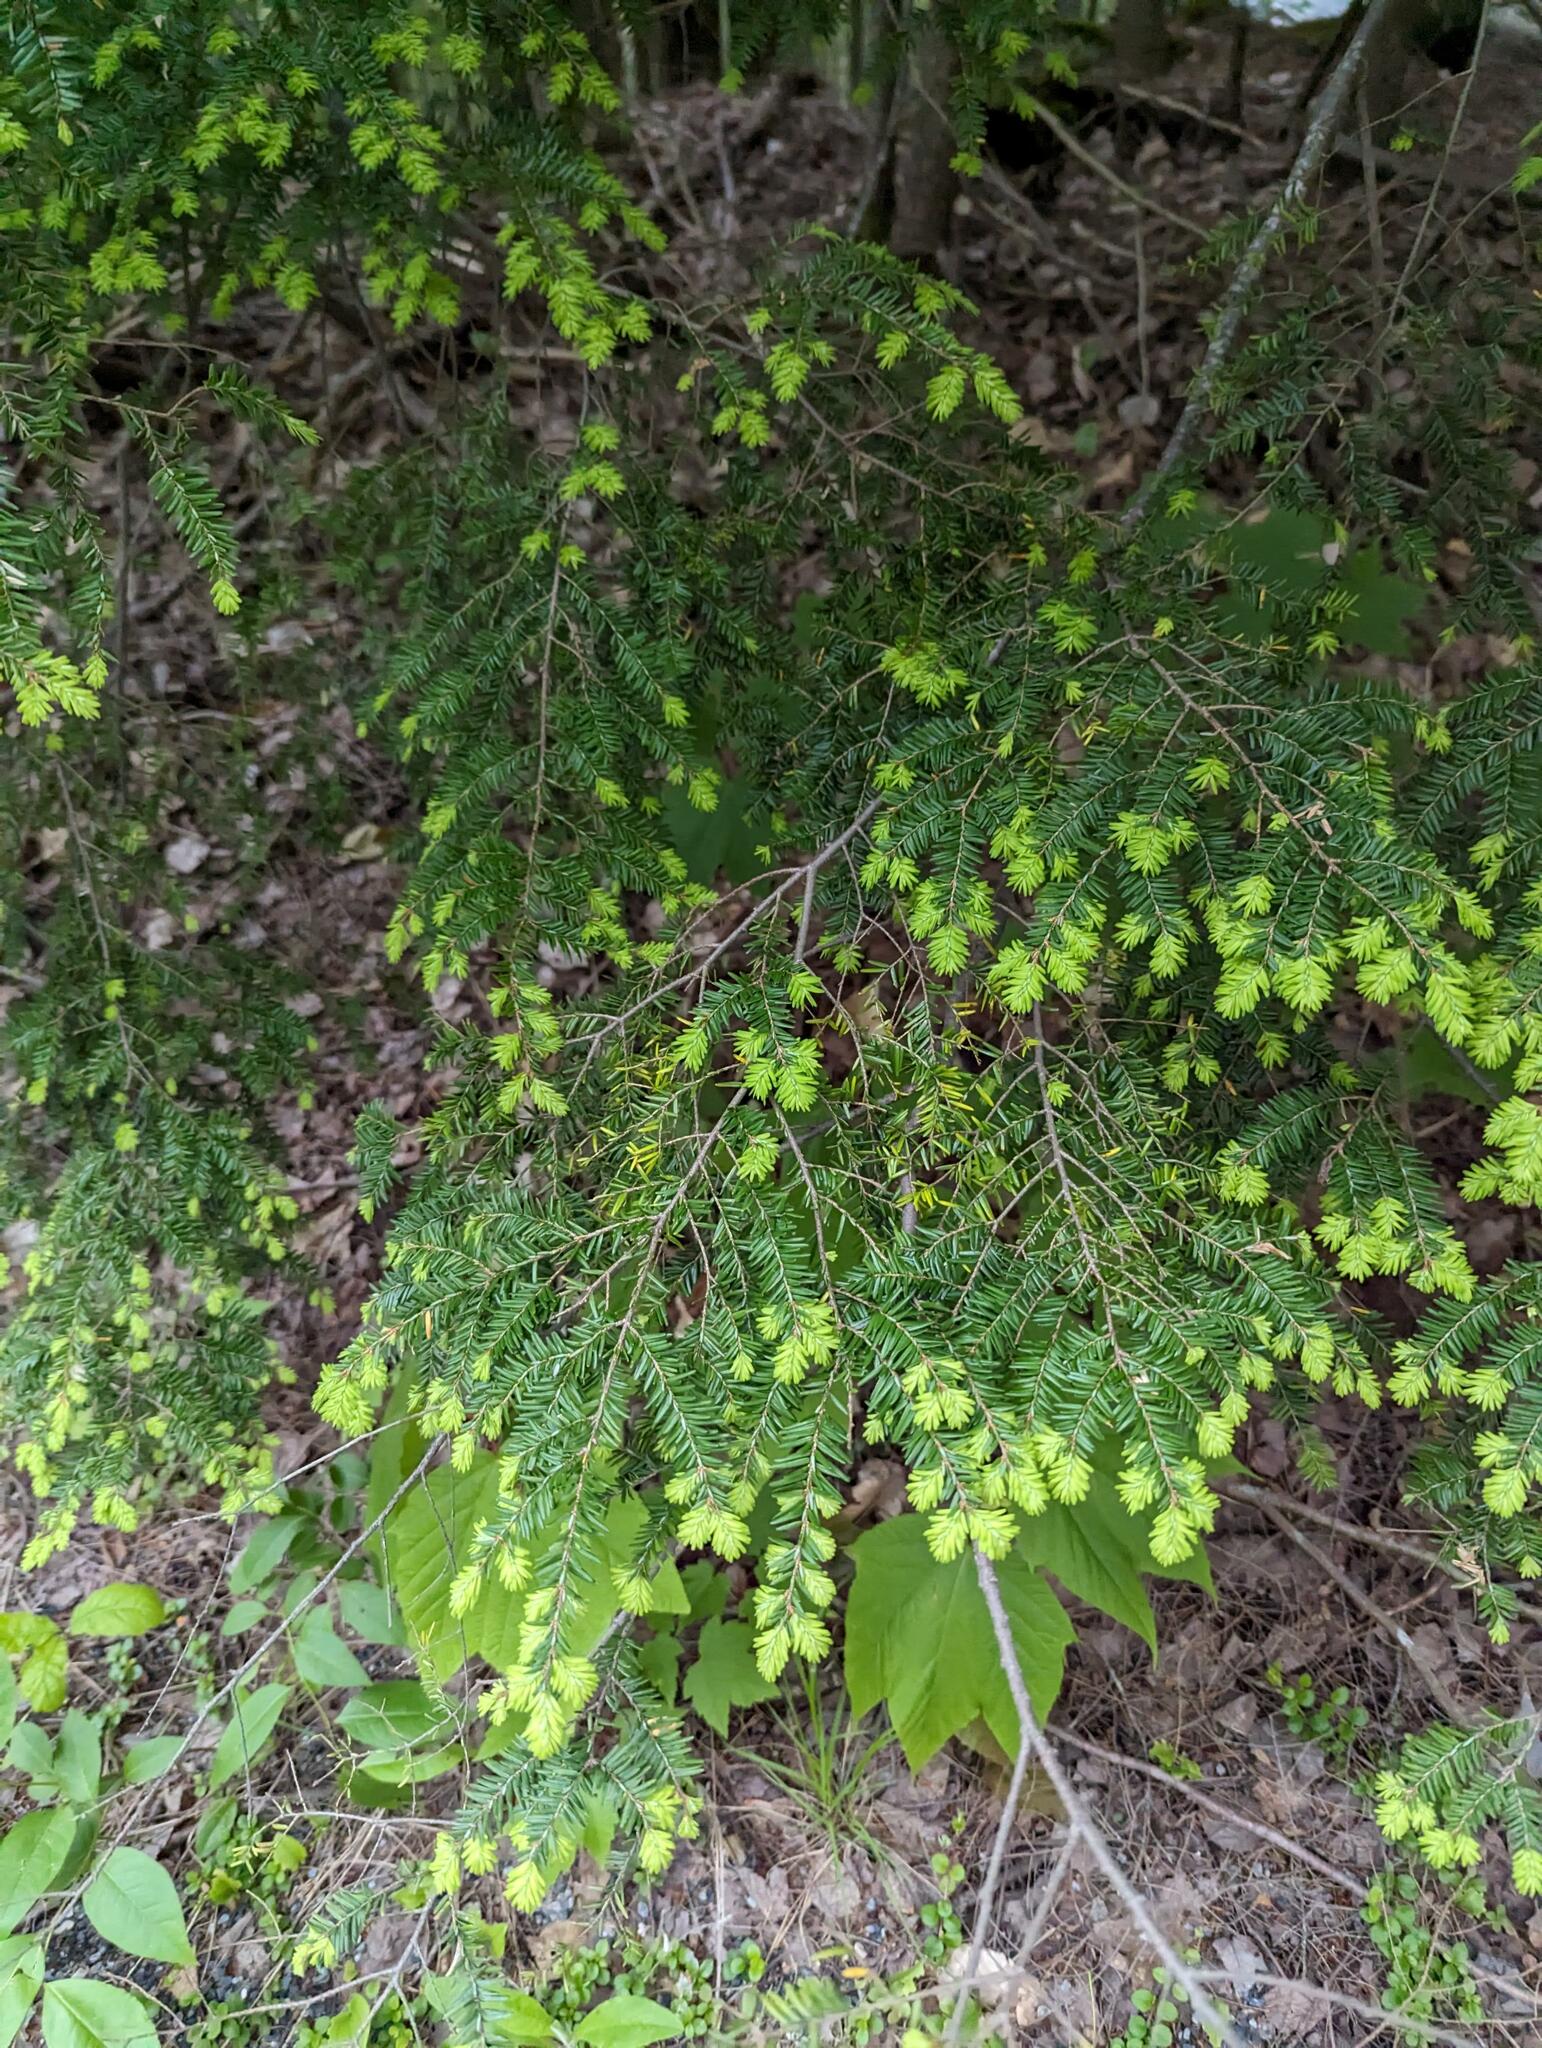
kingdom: Plantae
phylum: Tracheophyta
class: Pinopsida
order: Pinales
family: Pinaceae
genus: Tsuga
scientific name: Tsuga canadensis
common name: Eastern hemlock
